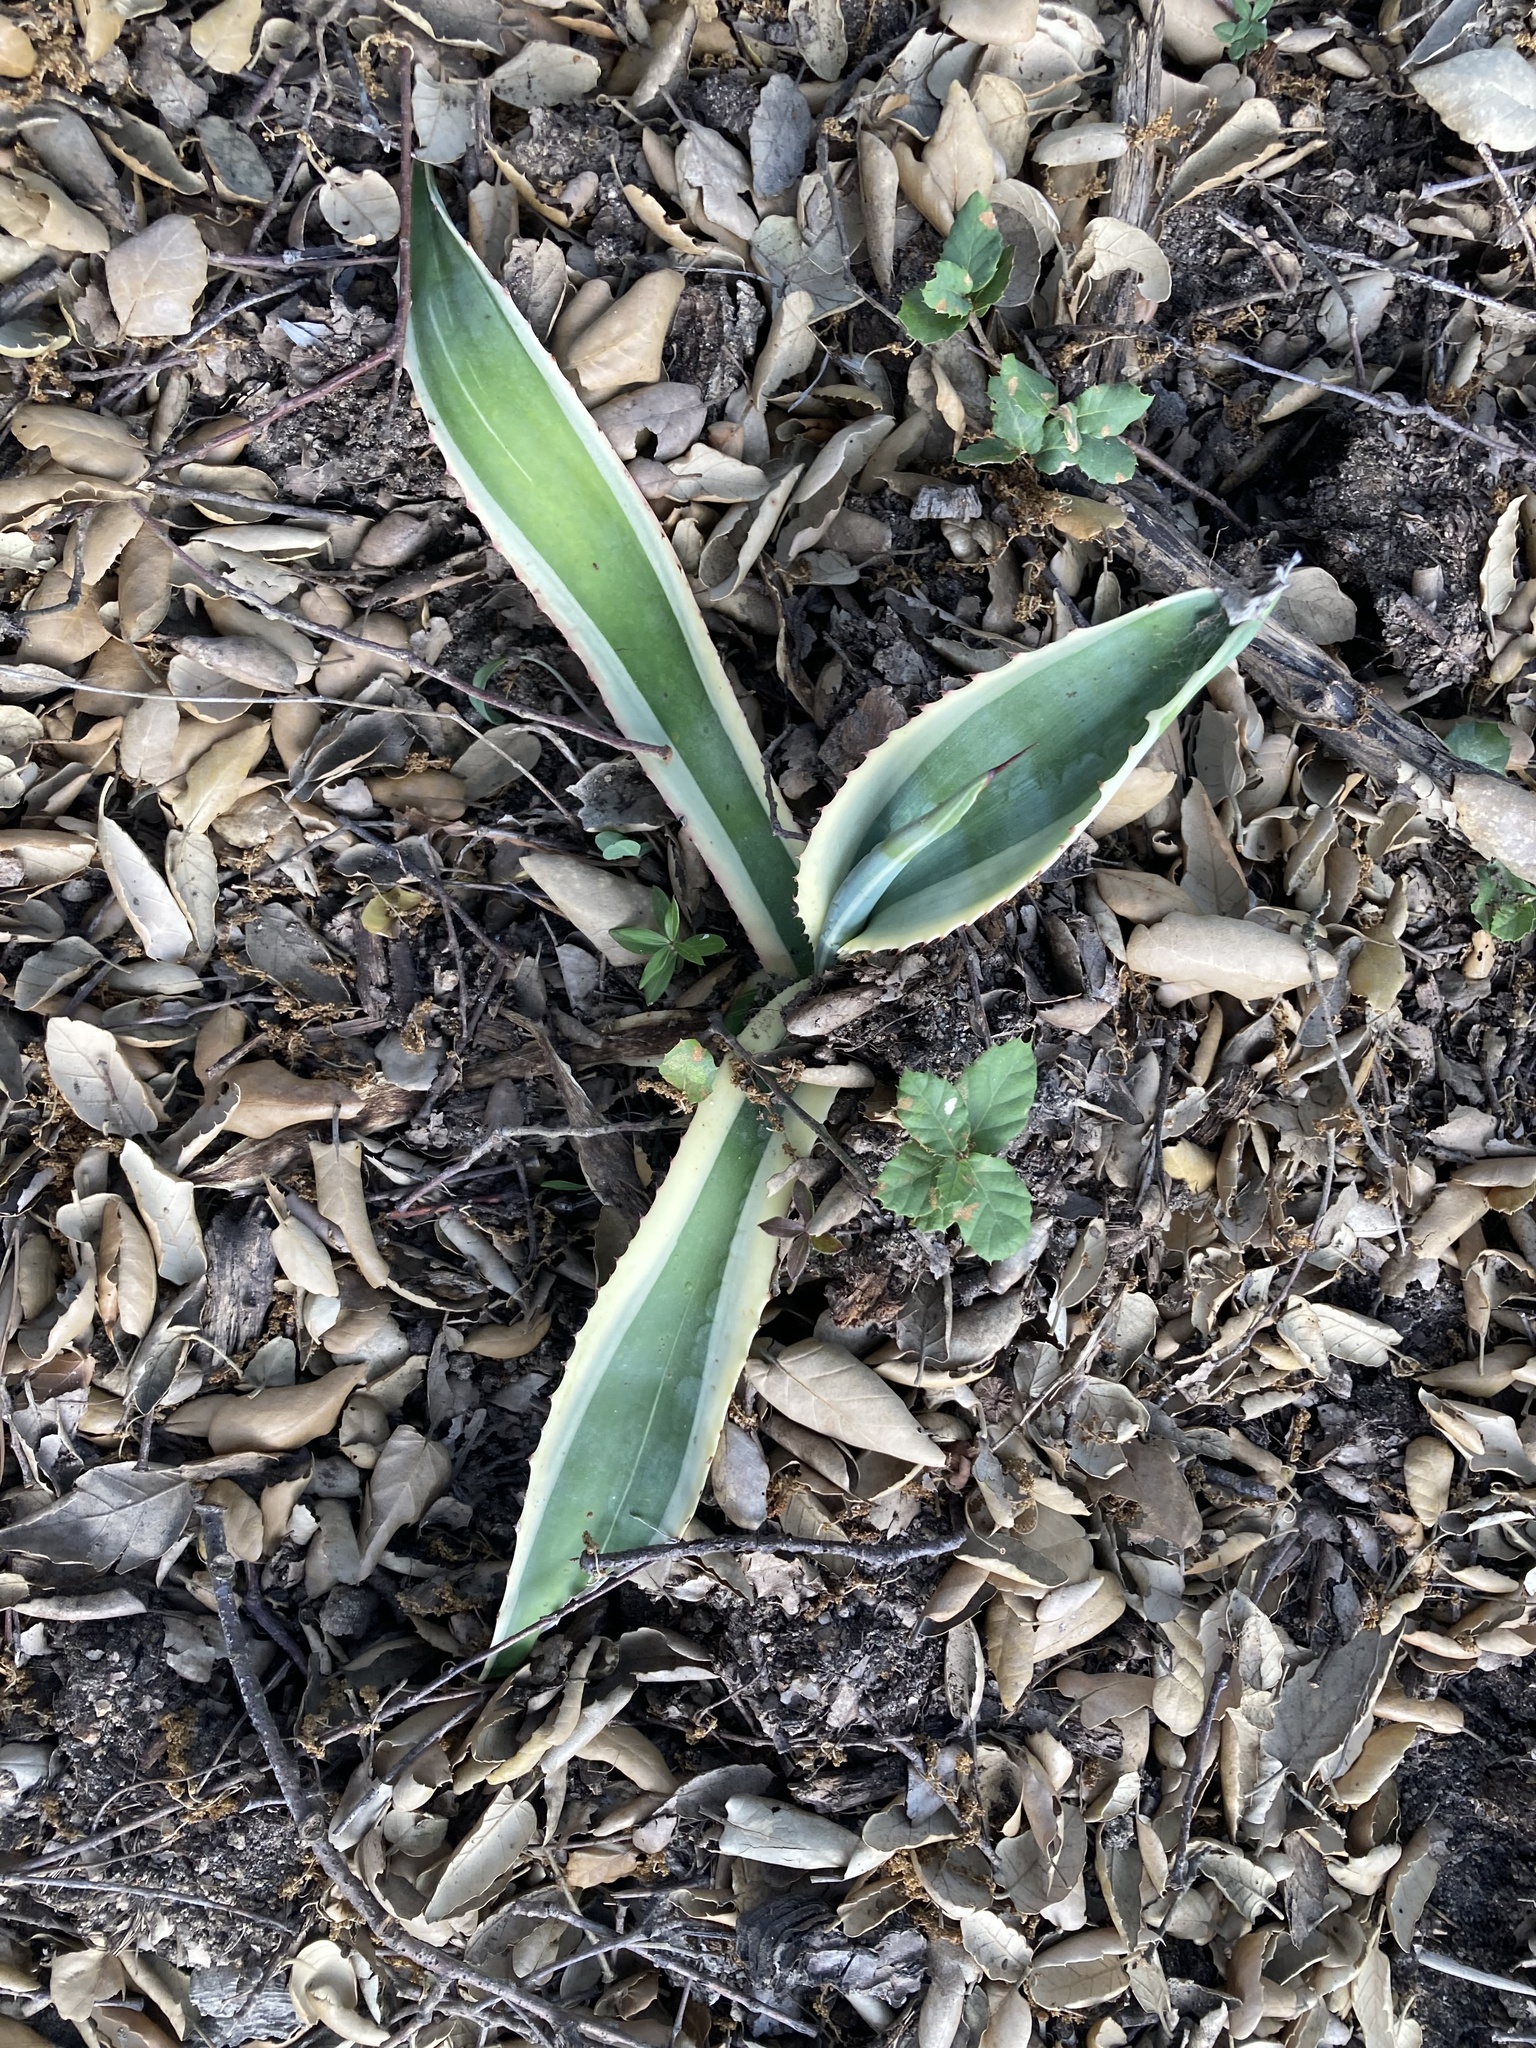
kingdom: Plantae
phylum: Tracheophyta
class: Liliopsida
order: Asparagales
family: Asparagaceae
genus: Agave
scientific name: Agave americana
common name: Centuryplant
